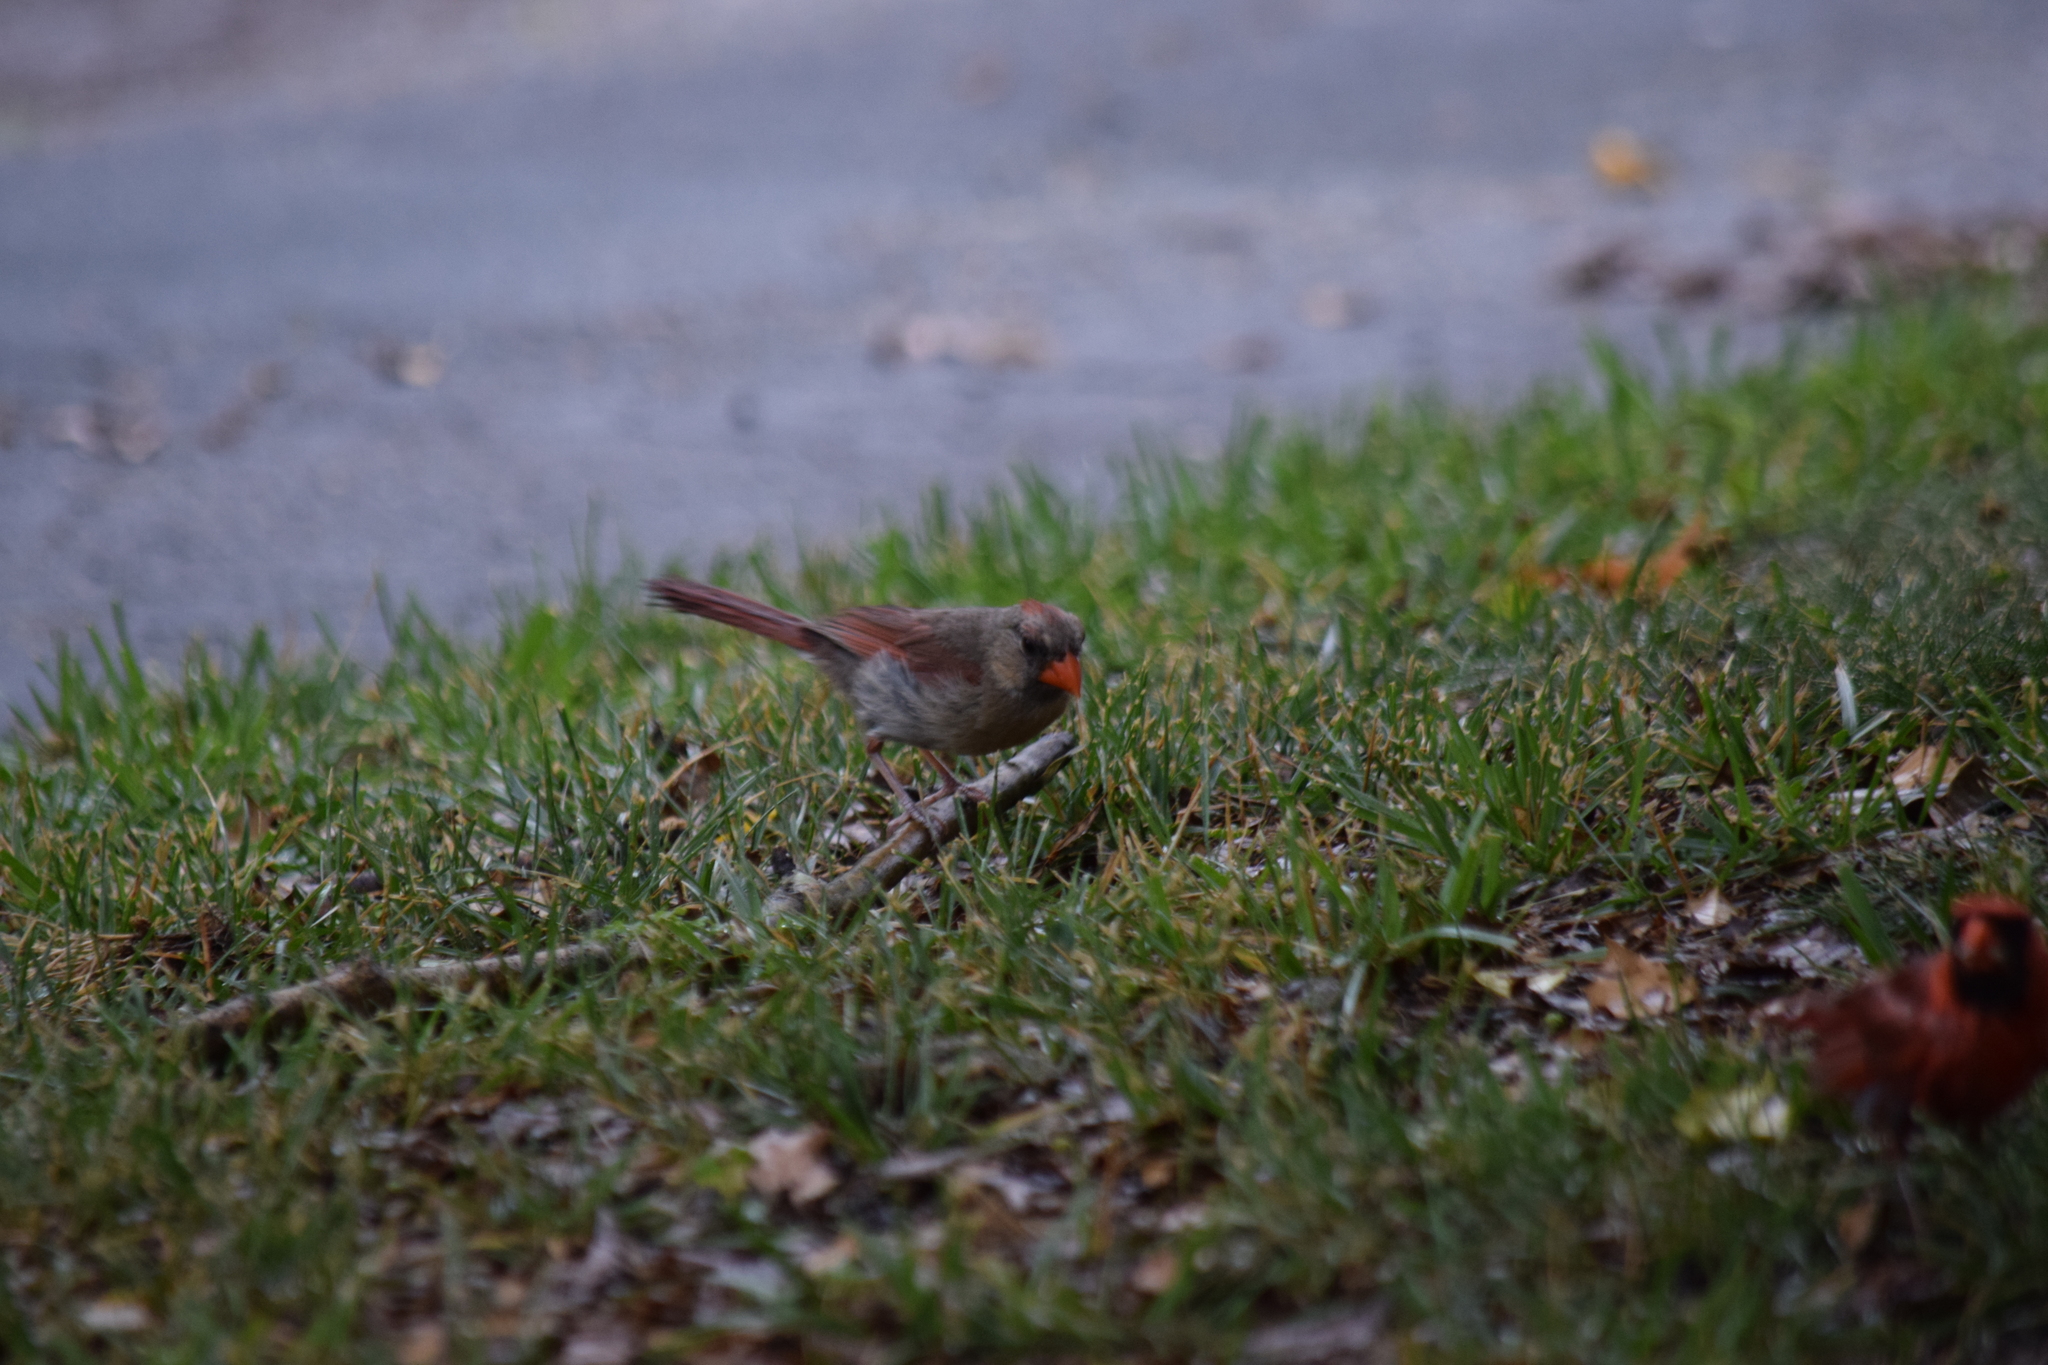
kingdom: Animalia
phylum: Chordata
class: Aves
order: Passeriformes
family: Cardinalidae
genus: Cardinalis
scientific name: Cardinalis cardinalis
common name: Northern cardinal
